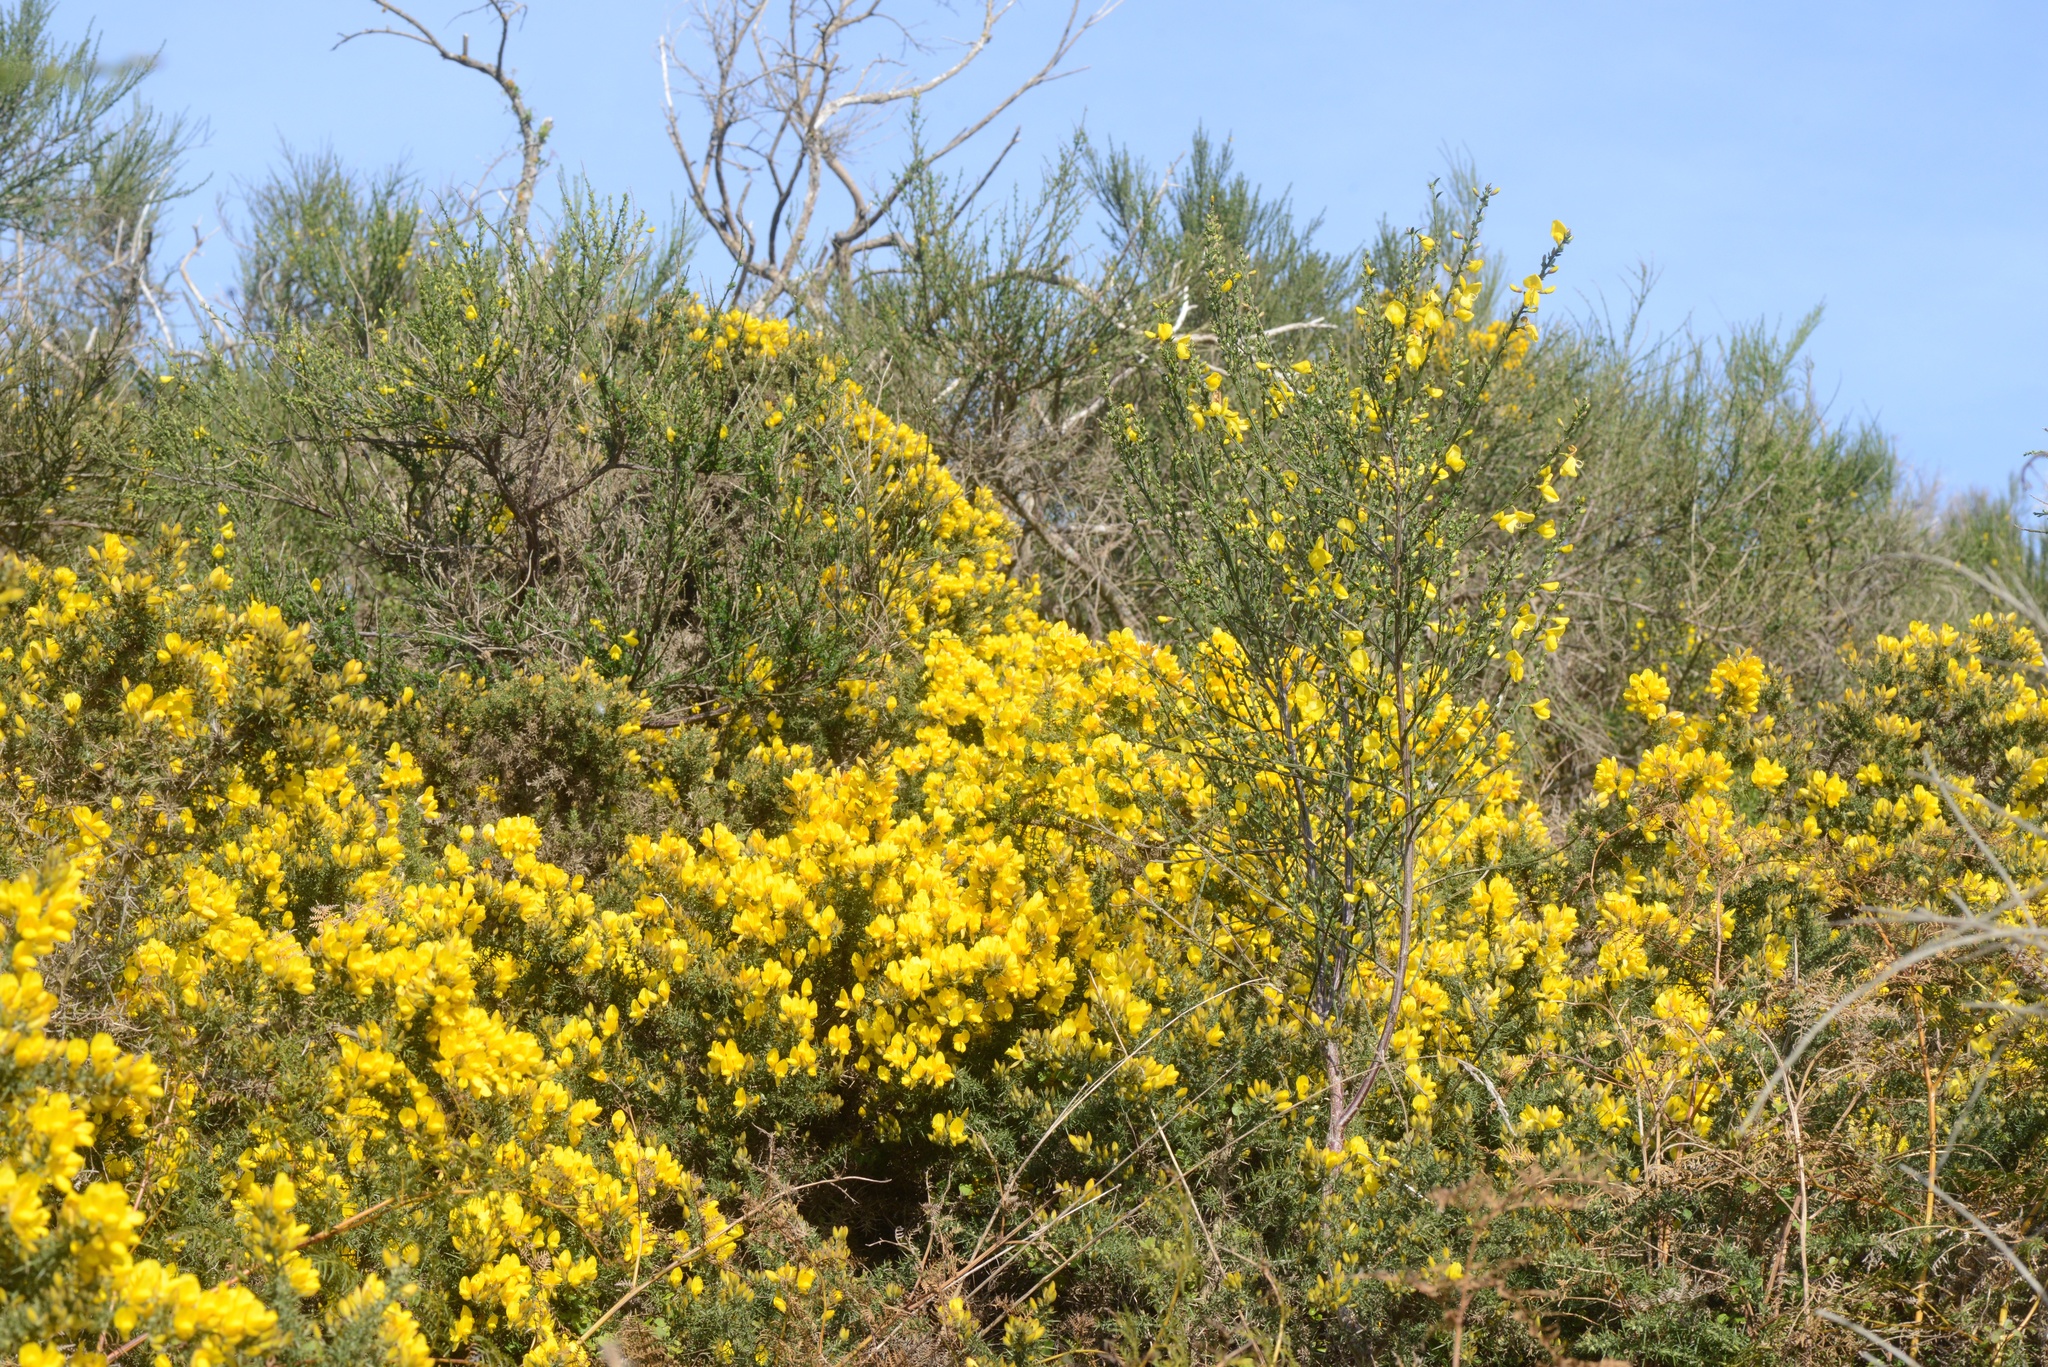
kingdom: Plantae
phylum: Tracheophyta
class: Magnoliopsida
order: Fabales
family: Fabaceae
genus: Cytisus
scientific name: Cytisus scoparius
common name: Scotch broom
